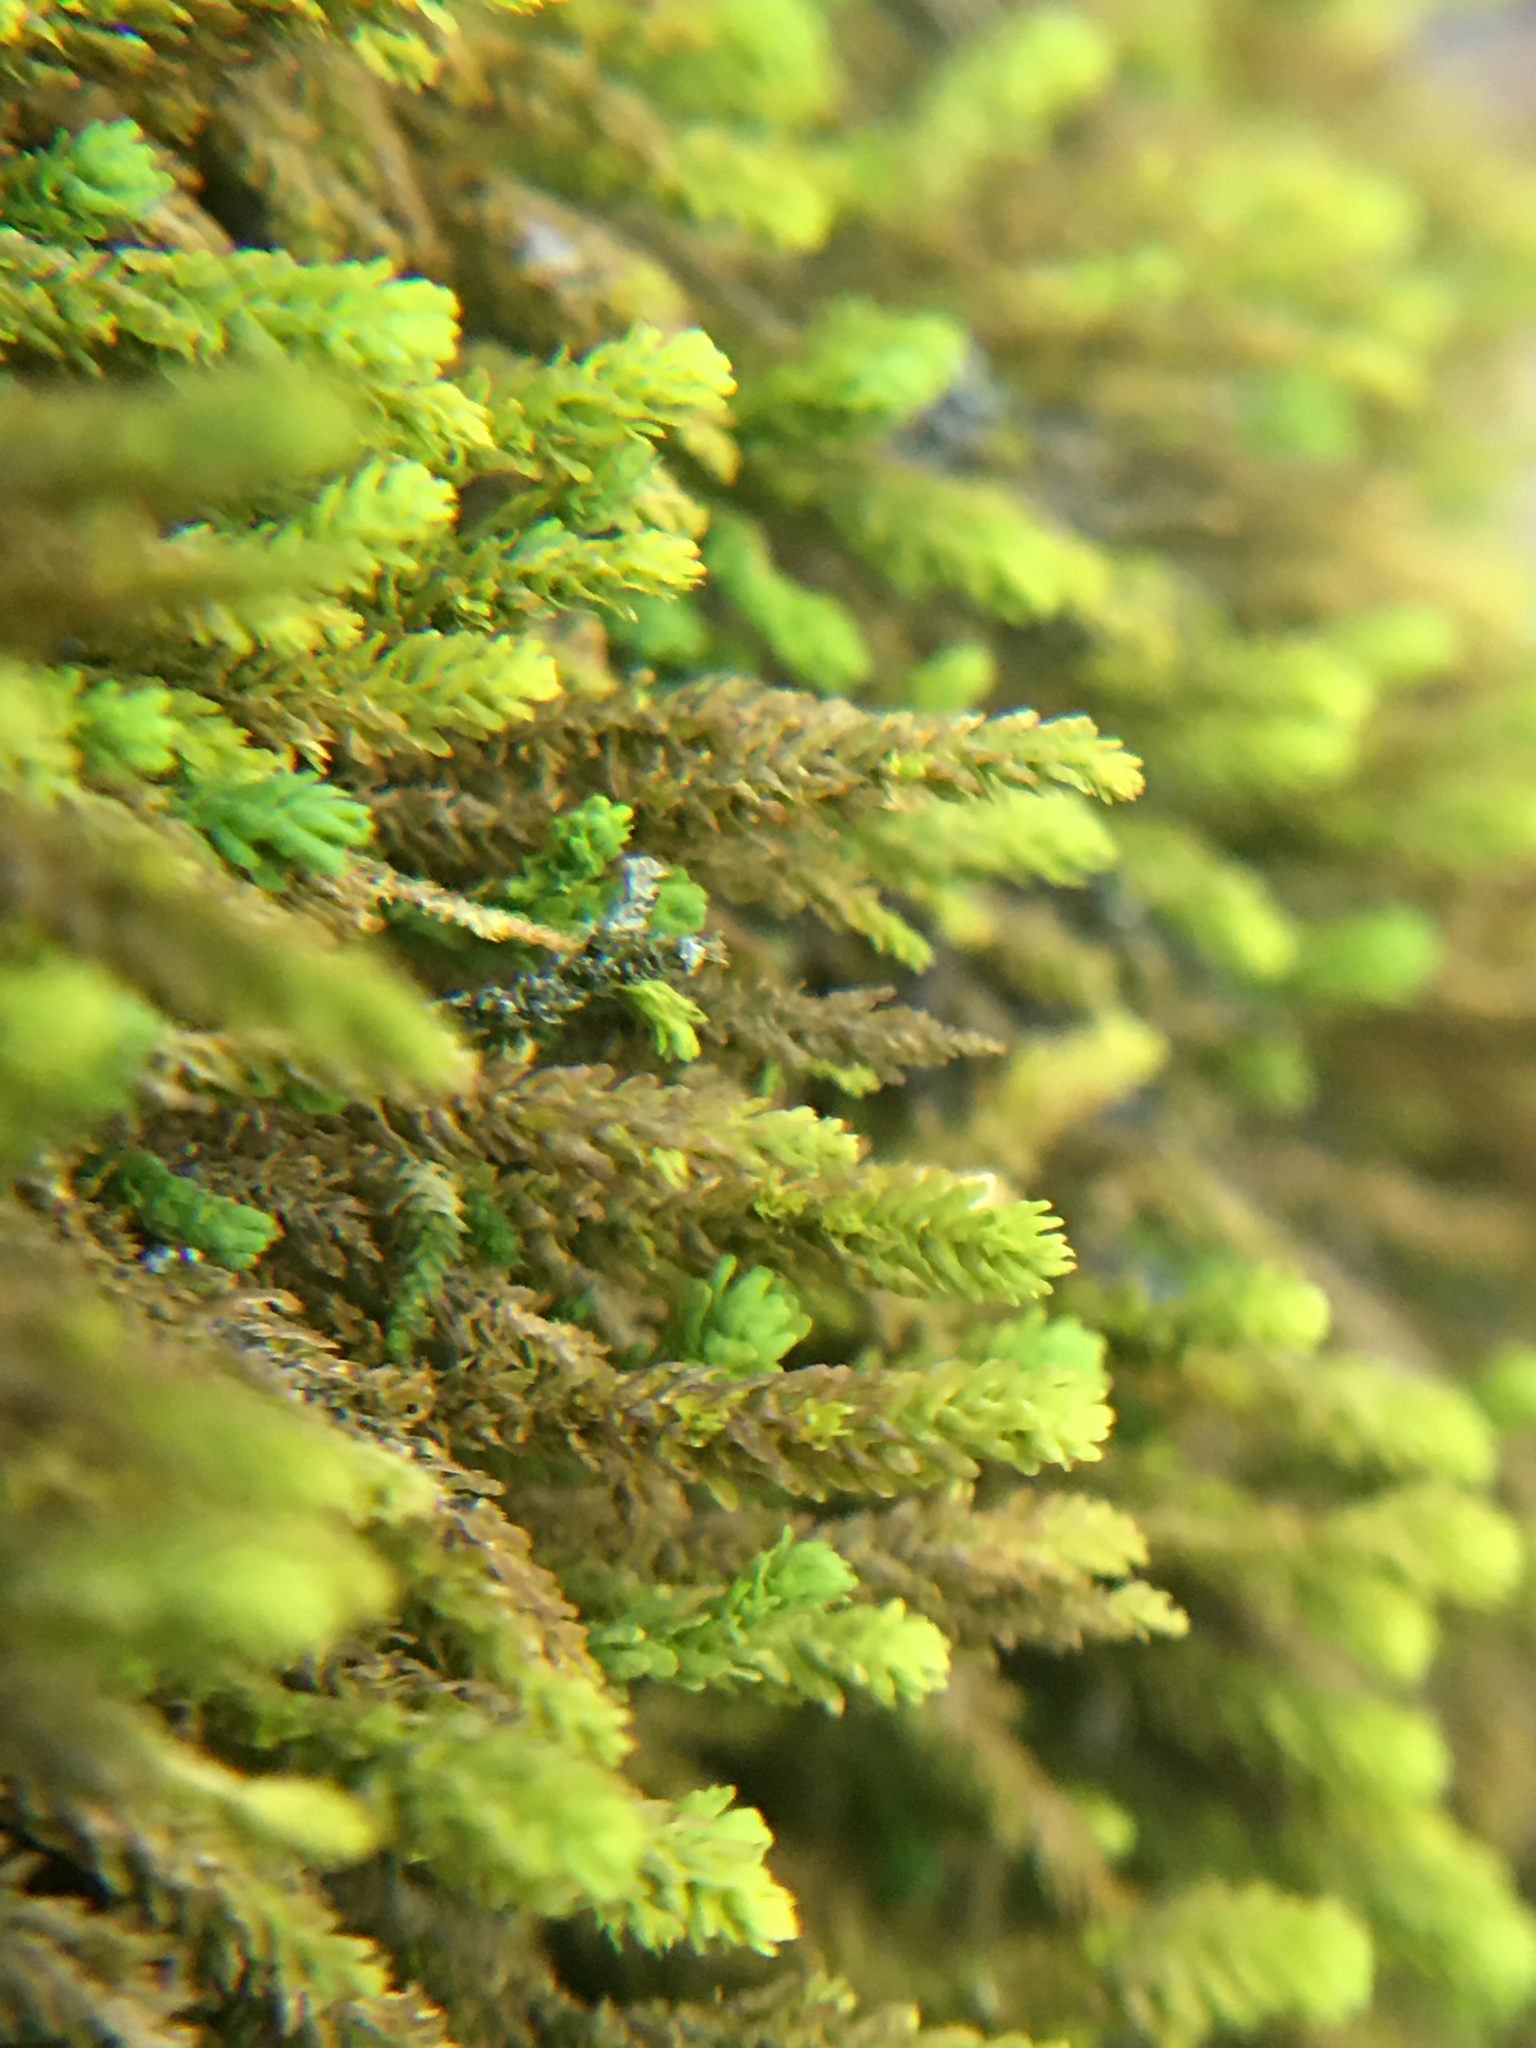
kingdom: Plantae
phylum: Bryophyta
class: Bryopsida
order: Hypnales
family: Anomodontaceae
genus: Anomodon
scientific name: Anomodon minor
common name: Blunt-leaved anomodon
